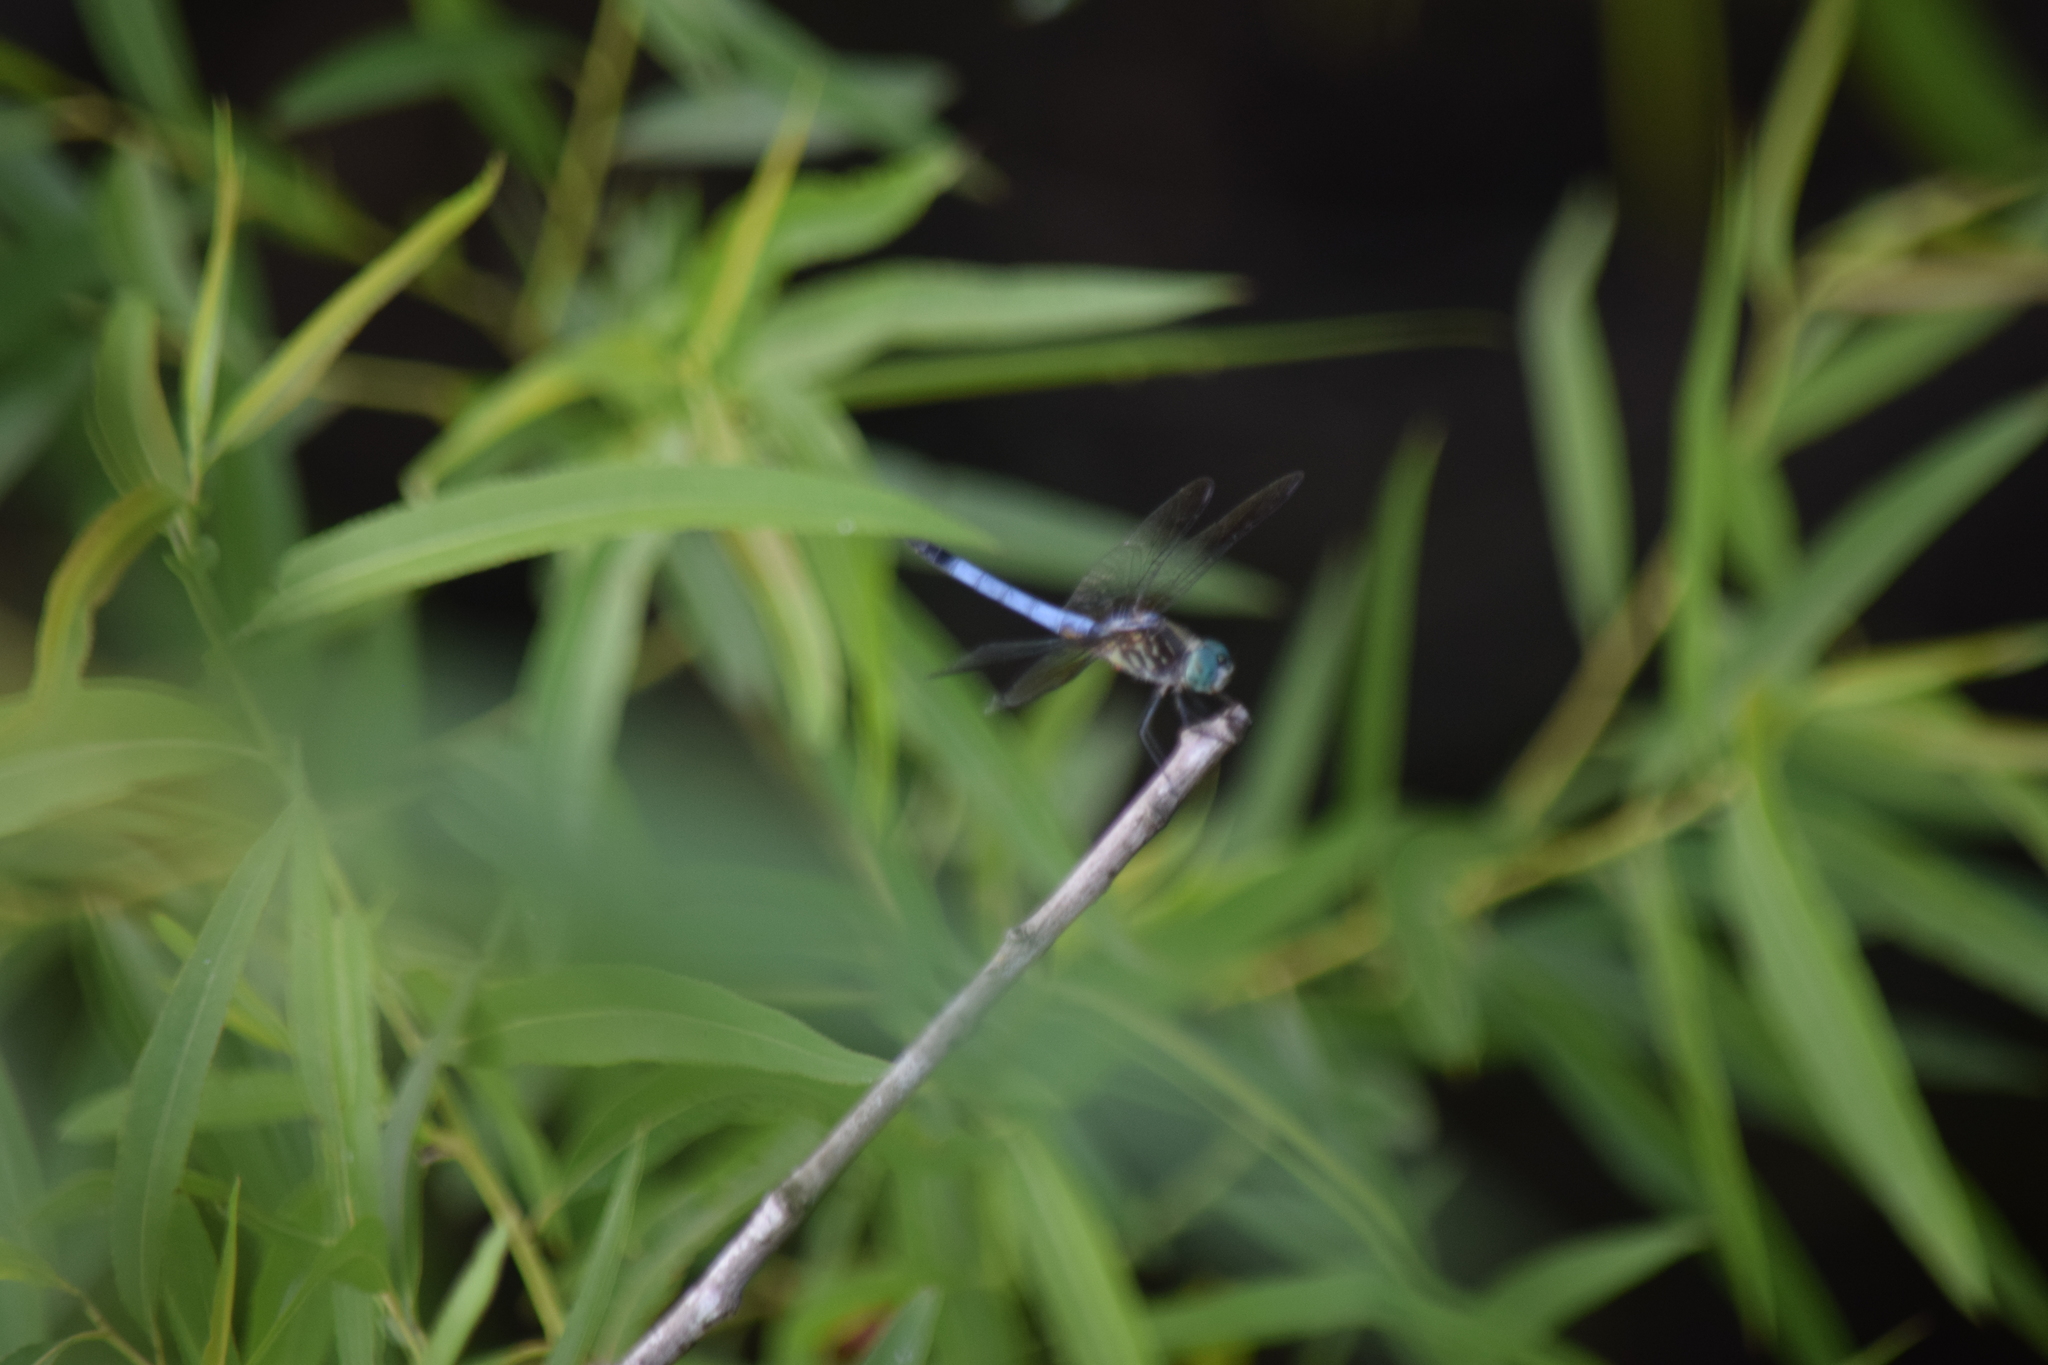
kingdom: Animalia
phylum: Arthropoda
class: Insecta
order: Odonata
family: Libellulidae
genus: Pachydiplax
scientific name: Pachydiplax longipennis
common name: Blue dasher
